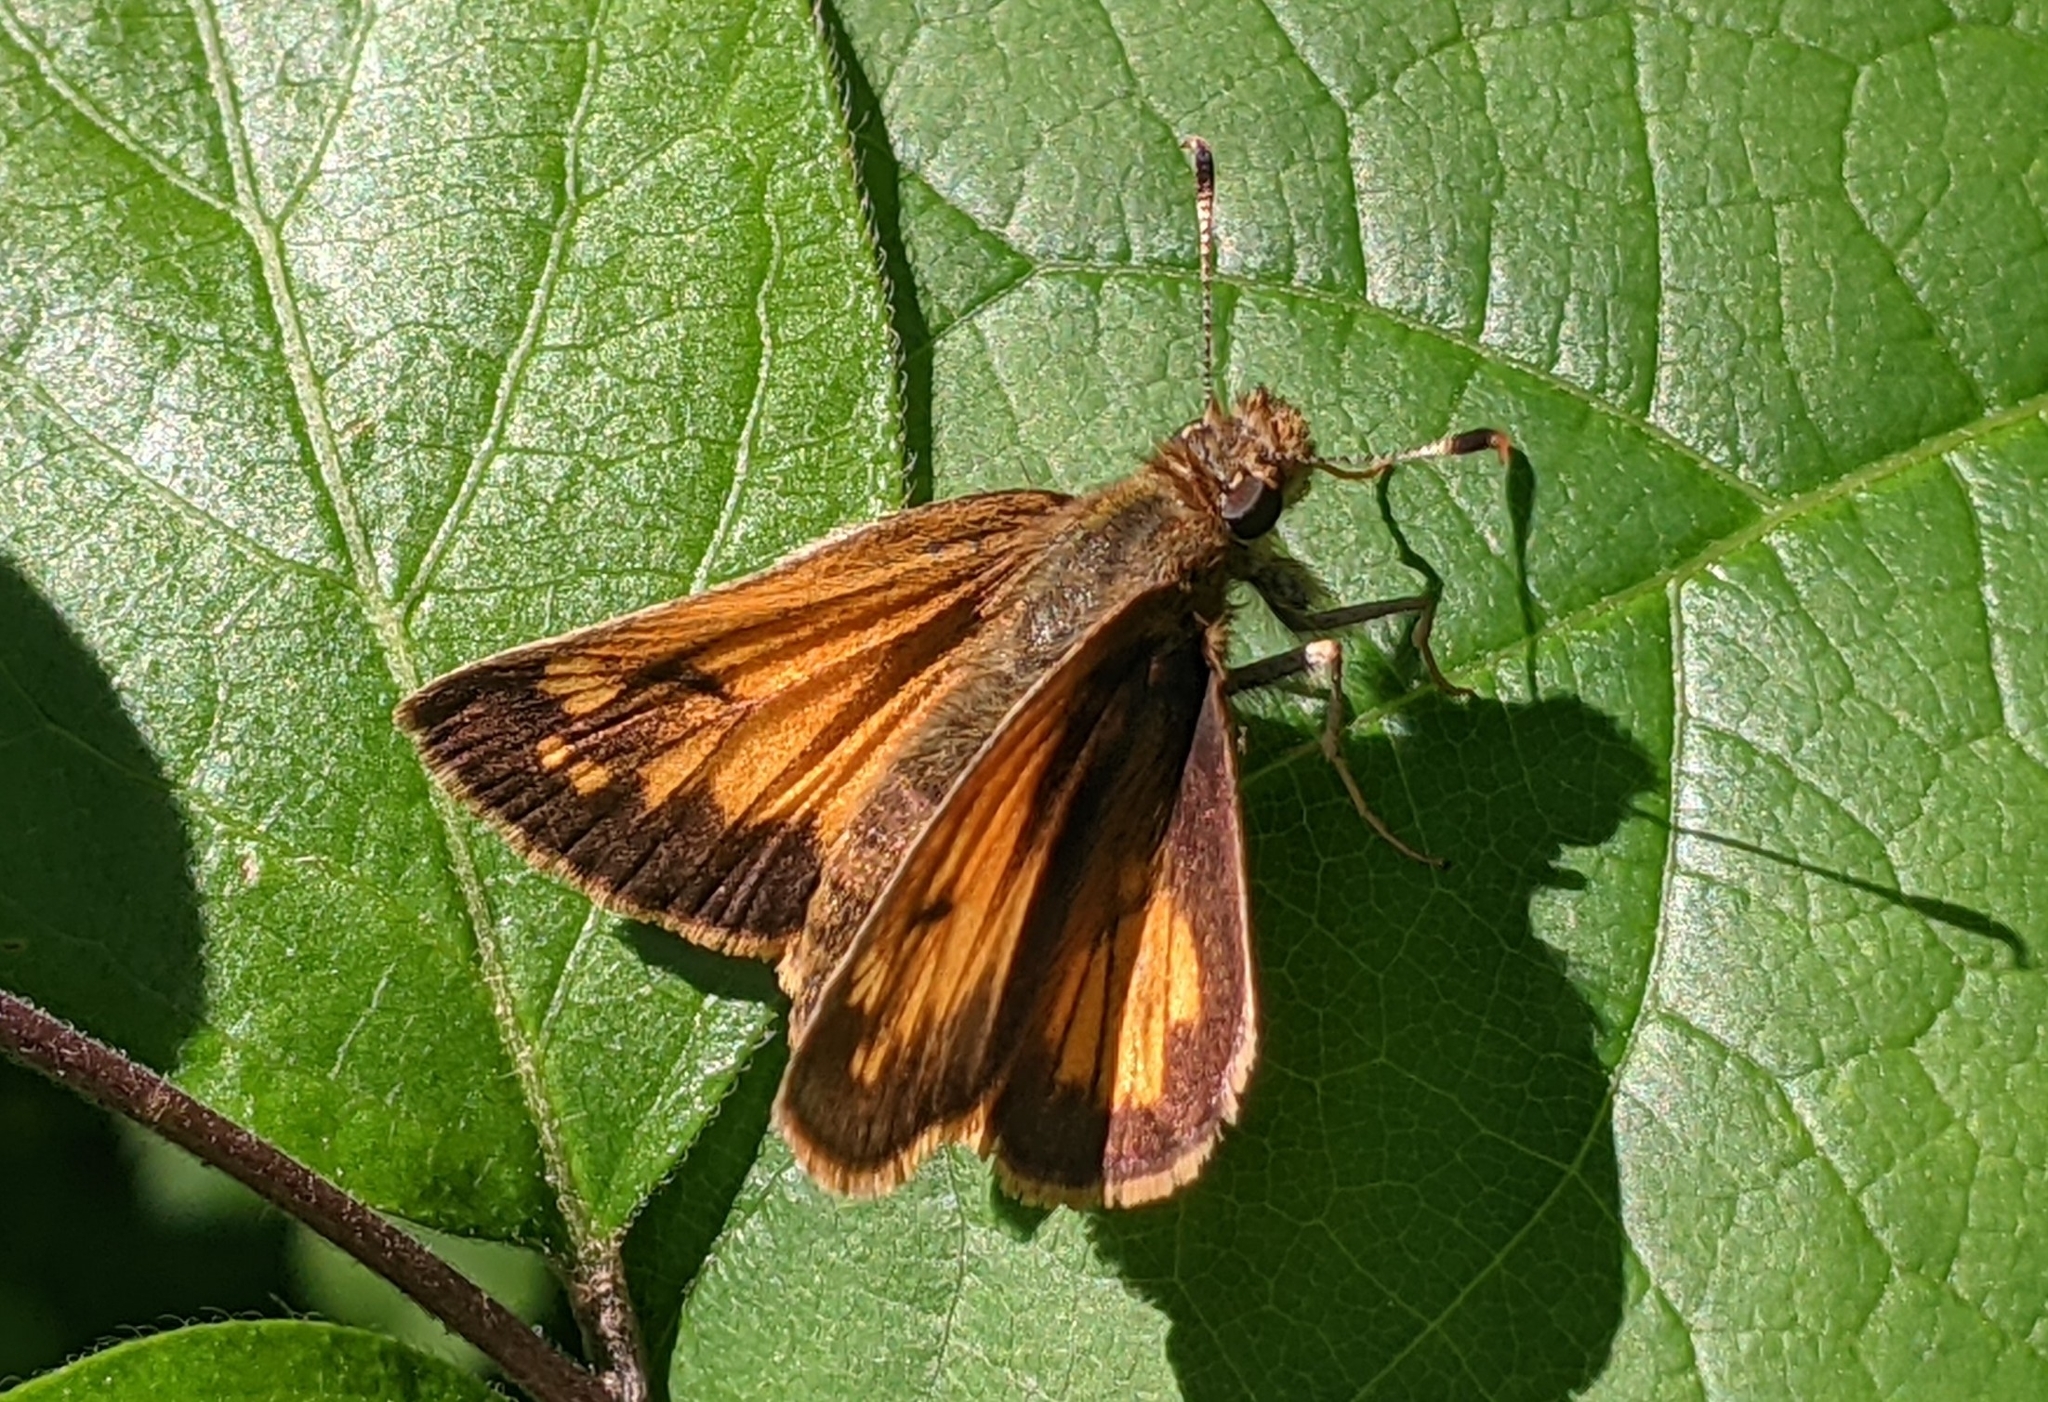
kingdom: Animalia
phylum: Arthropoda
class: Insecta
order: Lepidoptera
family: Hesperiidae
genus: Lon
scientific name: Lon hobomok
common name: Hobomok skipper
